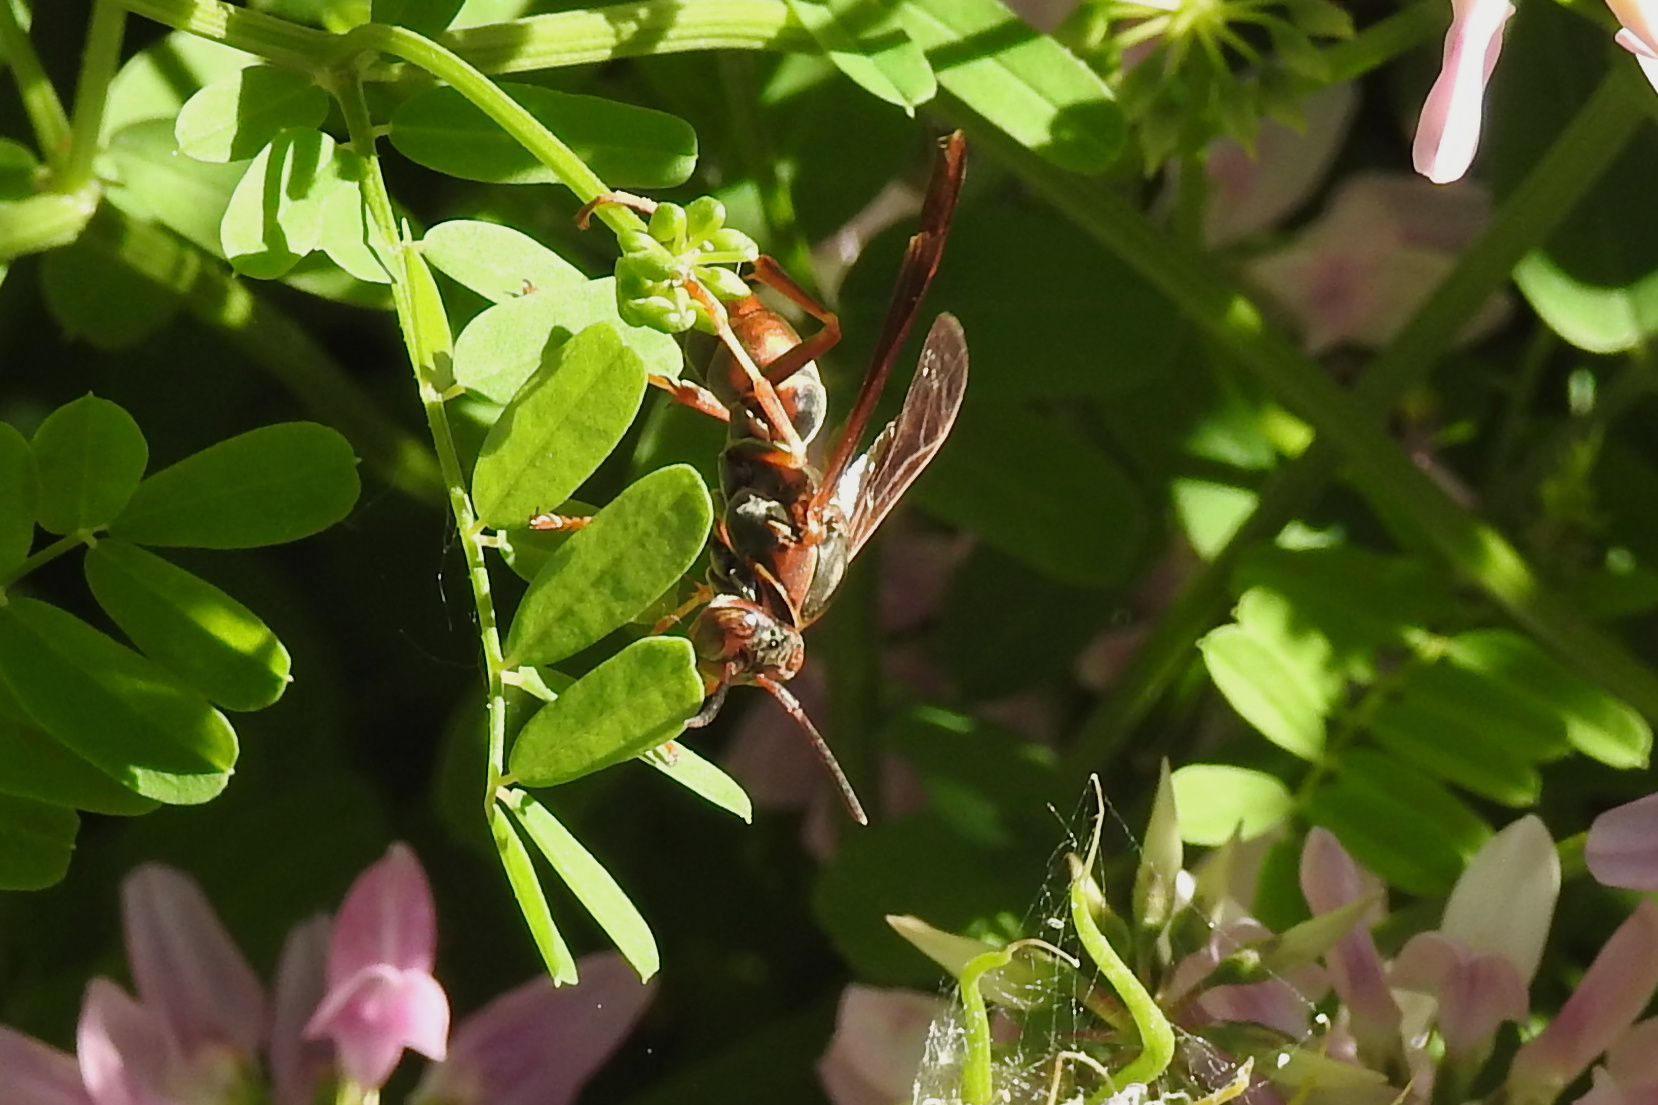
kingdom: Animalia
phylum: Arthropoda
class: Insecta
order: Hymenoptera
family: Eumenidae
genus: Polistes
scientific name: Polistes fuscatus
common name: Dark paper wasp
